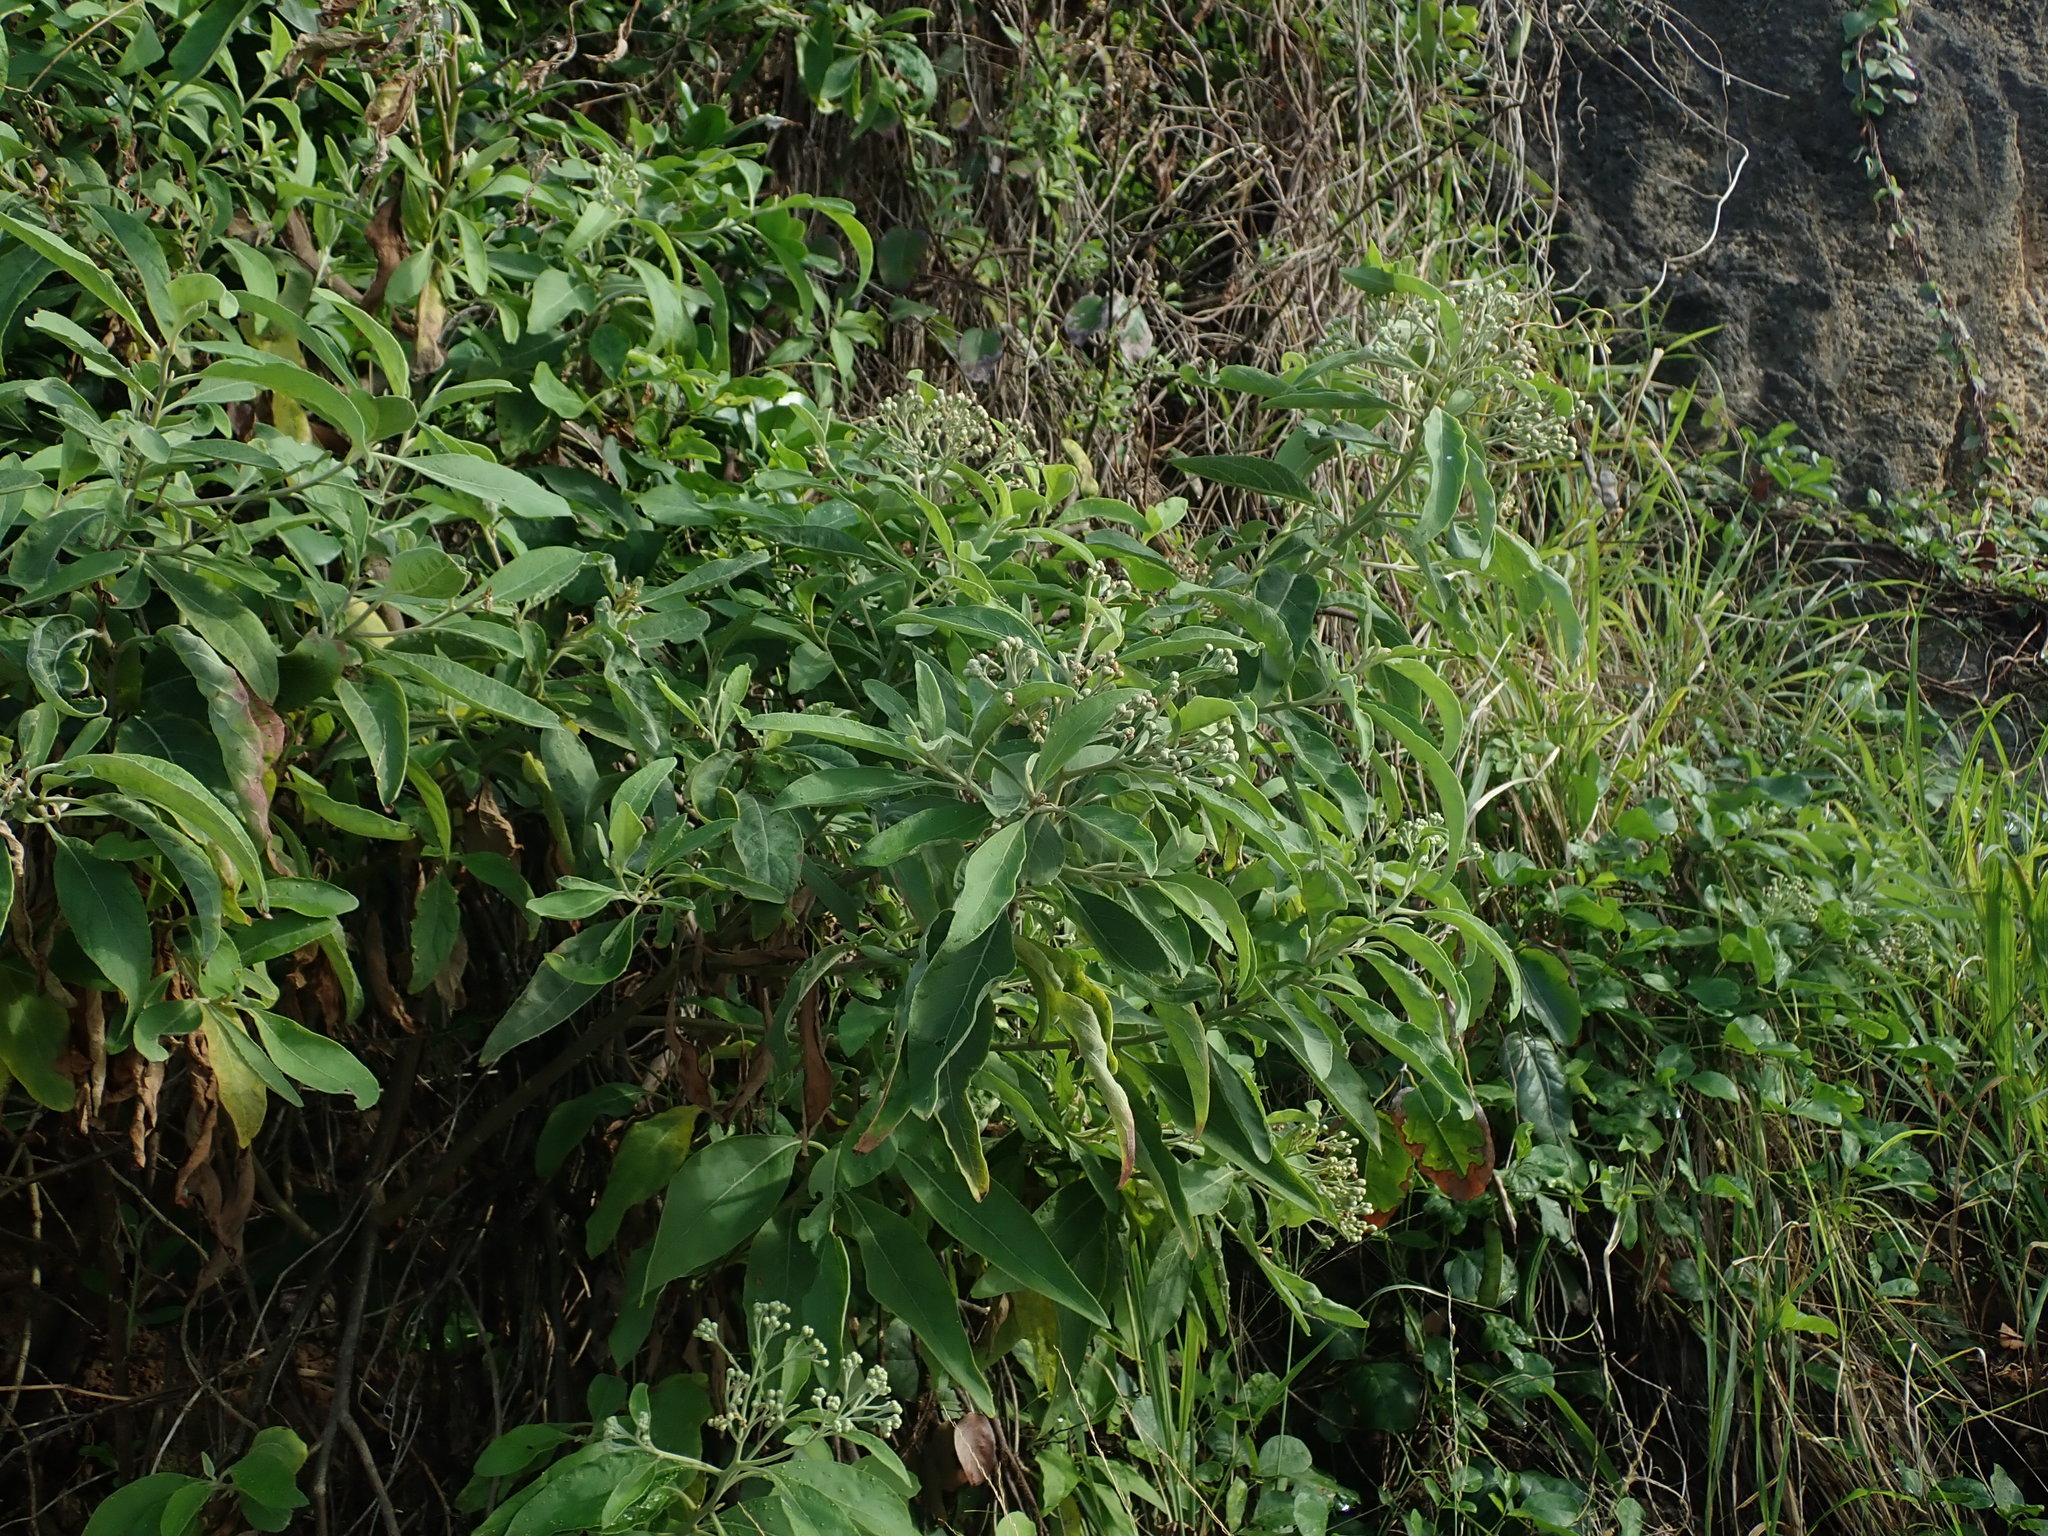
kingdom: Plantae
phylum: Tracheophyta
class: Magnoliopsida
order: Asterales
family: Asteraceae
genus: Pluchea
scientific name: Pluchea carolinensis
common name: Marsh fleabane
